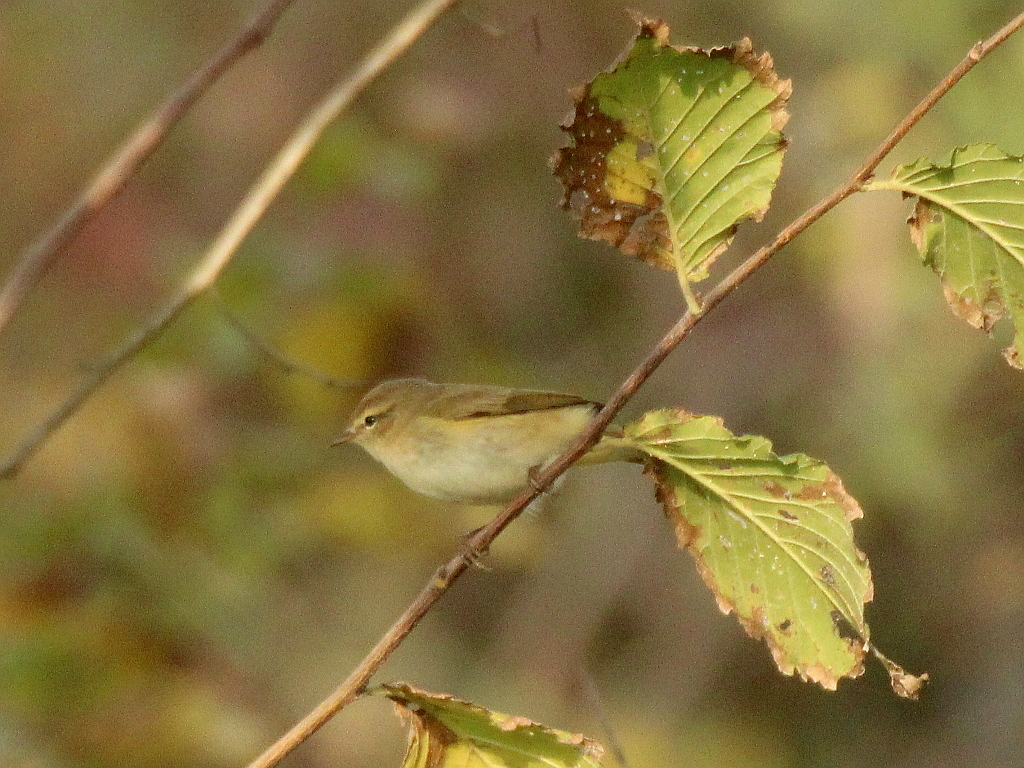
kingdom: Animalia
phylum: Chordata
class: Aves
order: Passeriformes
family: Phylloscopidae
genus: Phylloscopus
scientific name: Phylloscopus collybita
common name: Common chiffchaff
